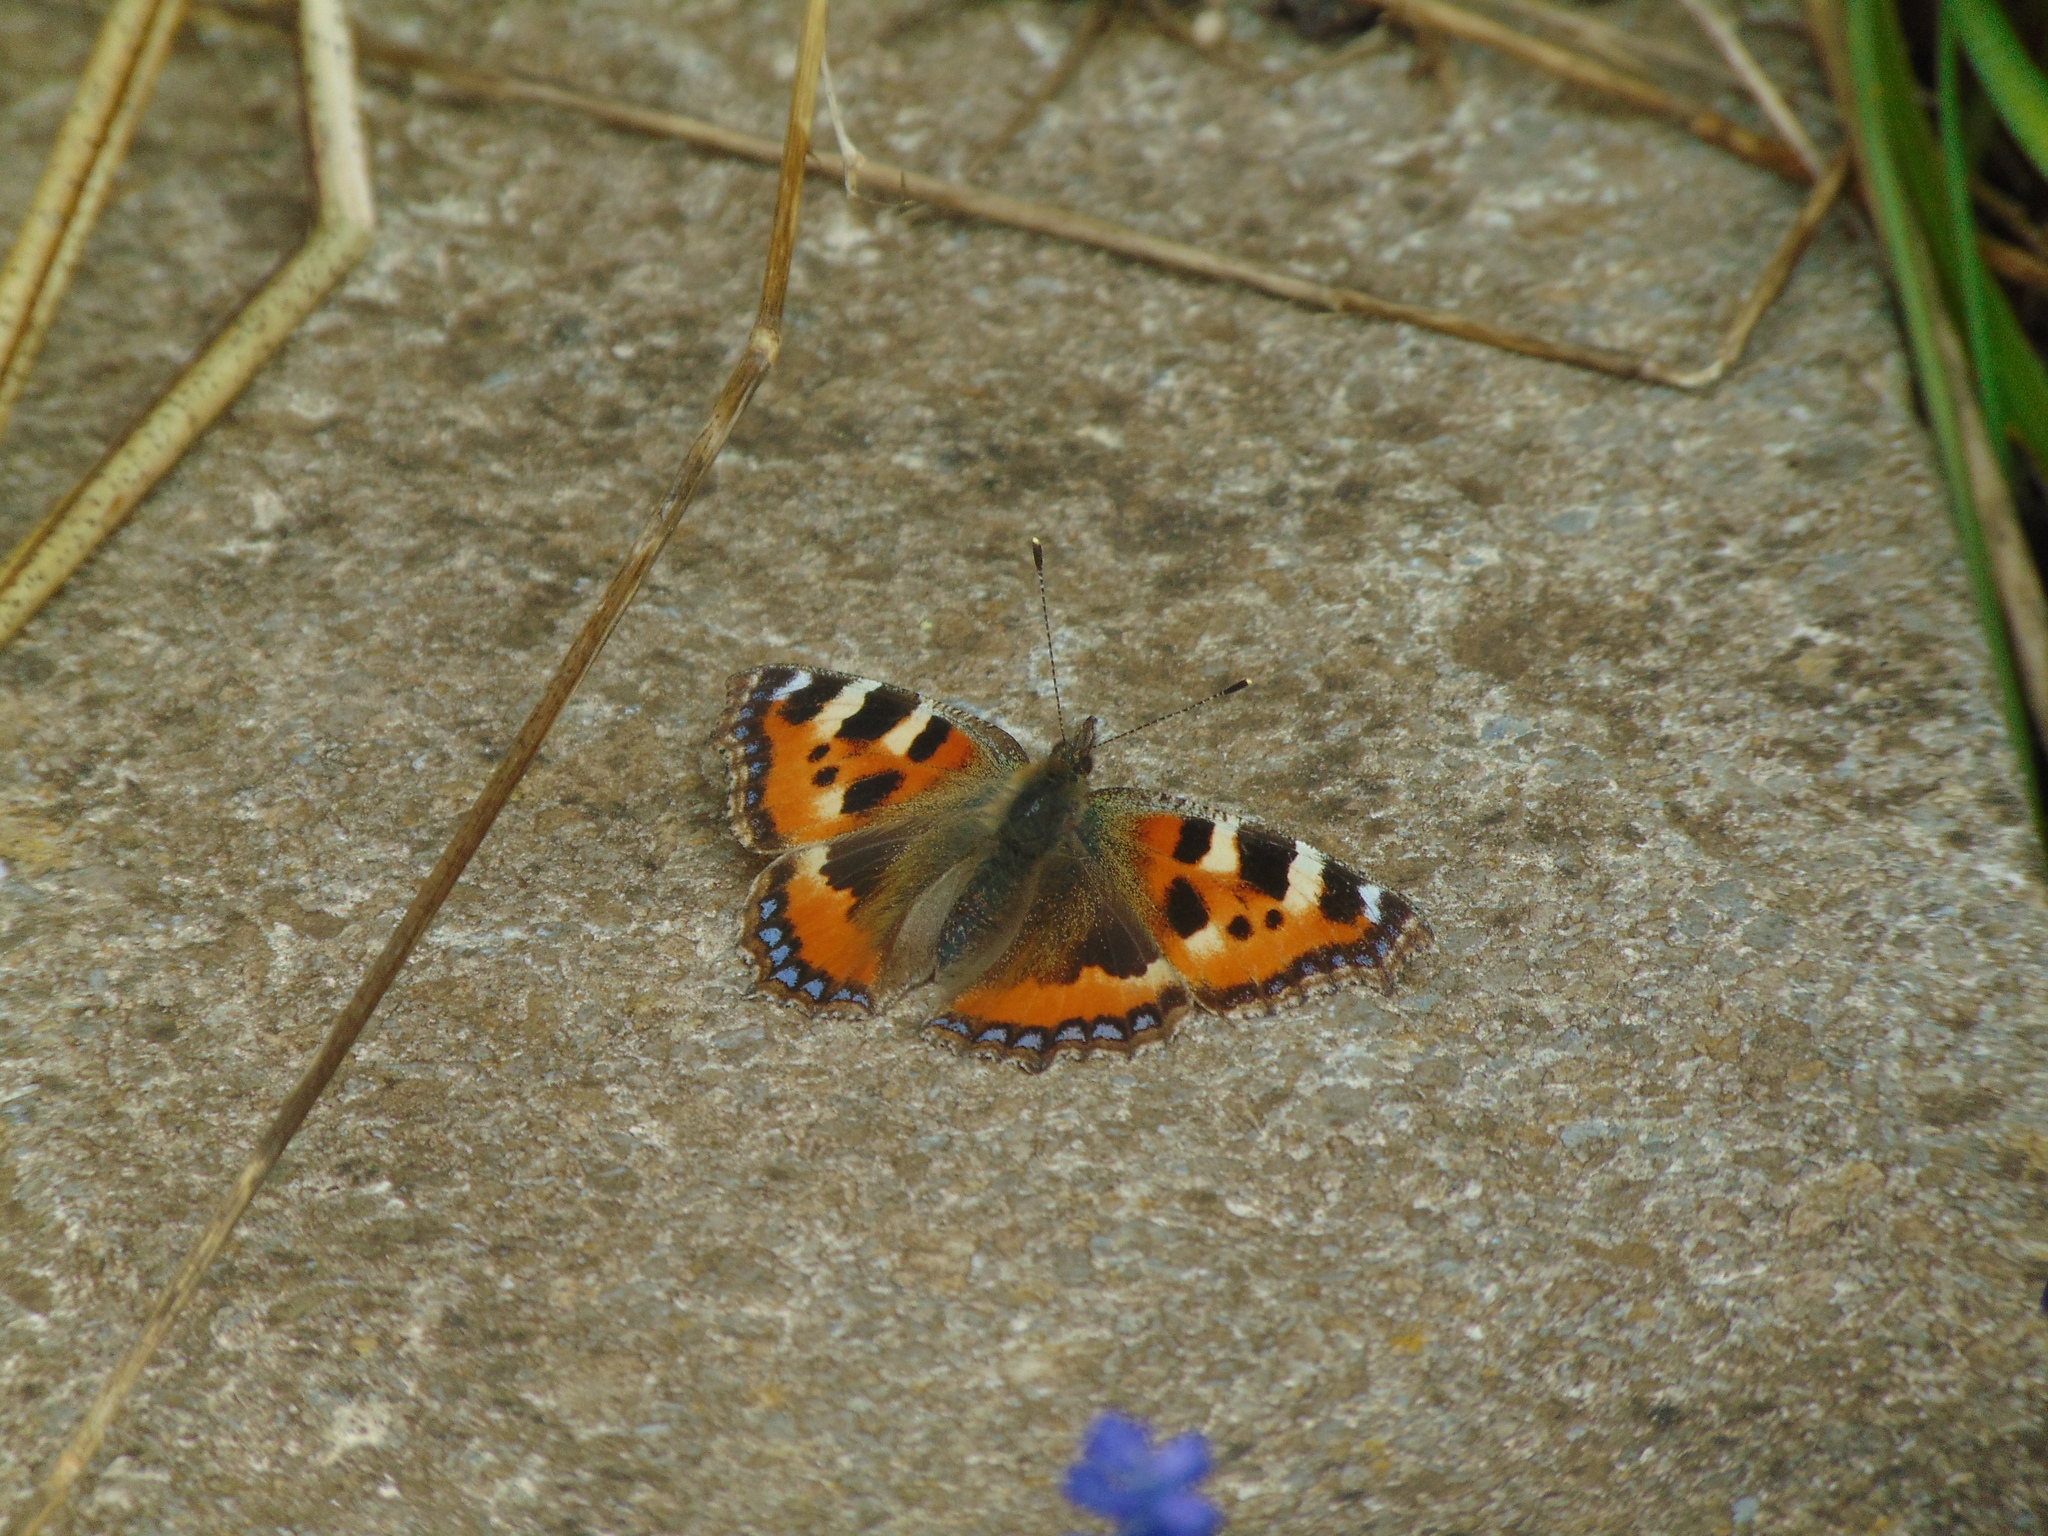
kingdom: Animalia
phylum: Arthropoda
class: Insecta
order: Lepidoptera
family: Nymphalidae
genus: Aglais
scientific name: Aglais urticae
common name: Small tortoiseshell
